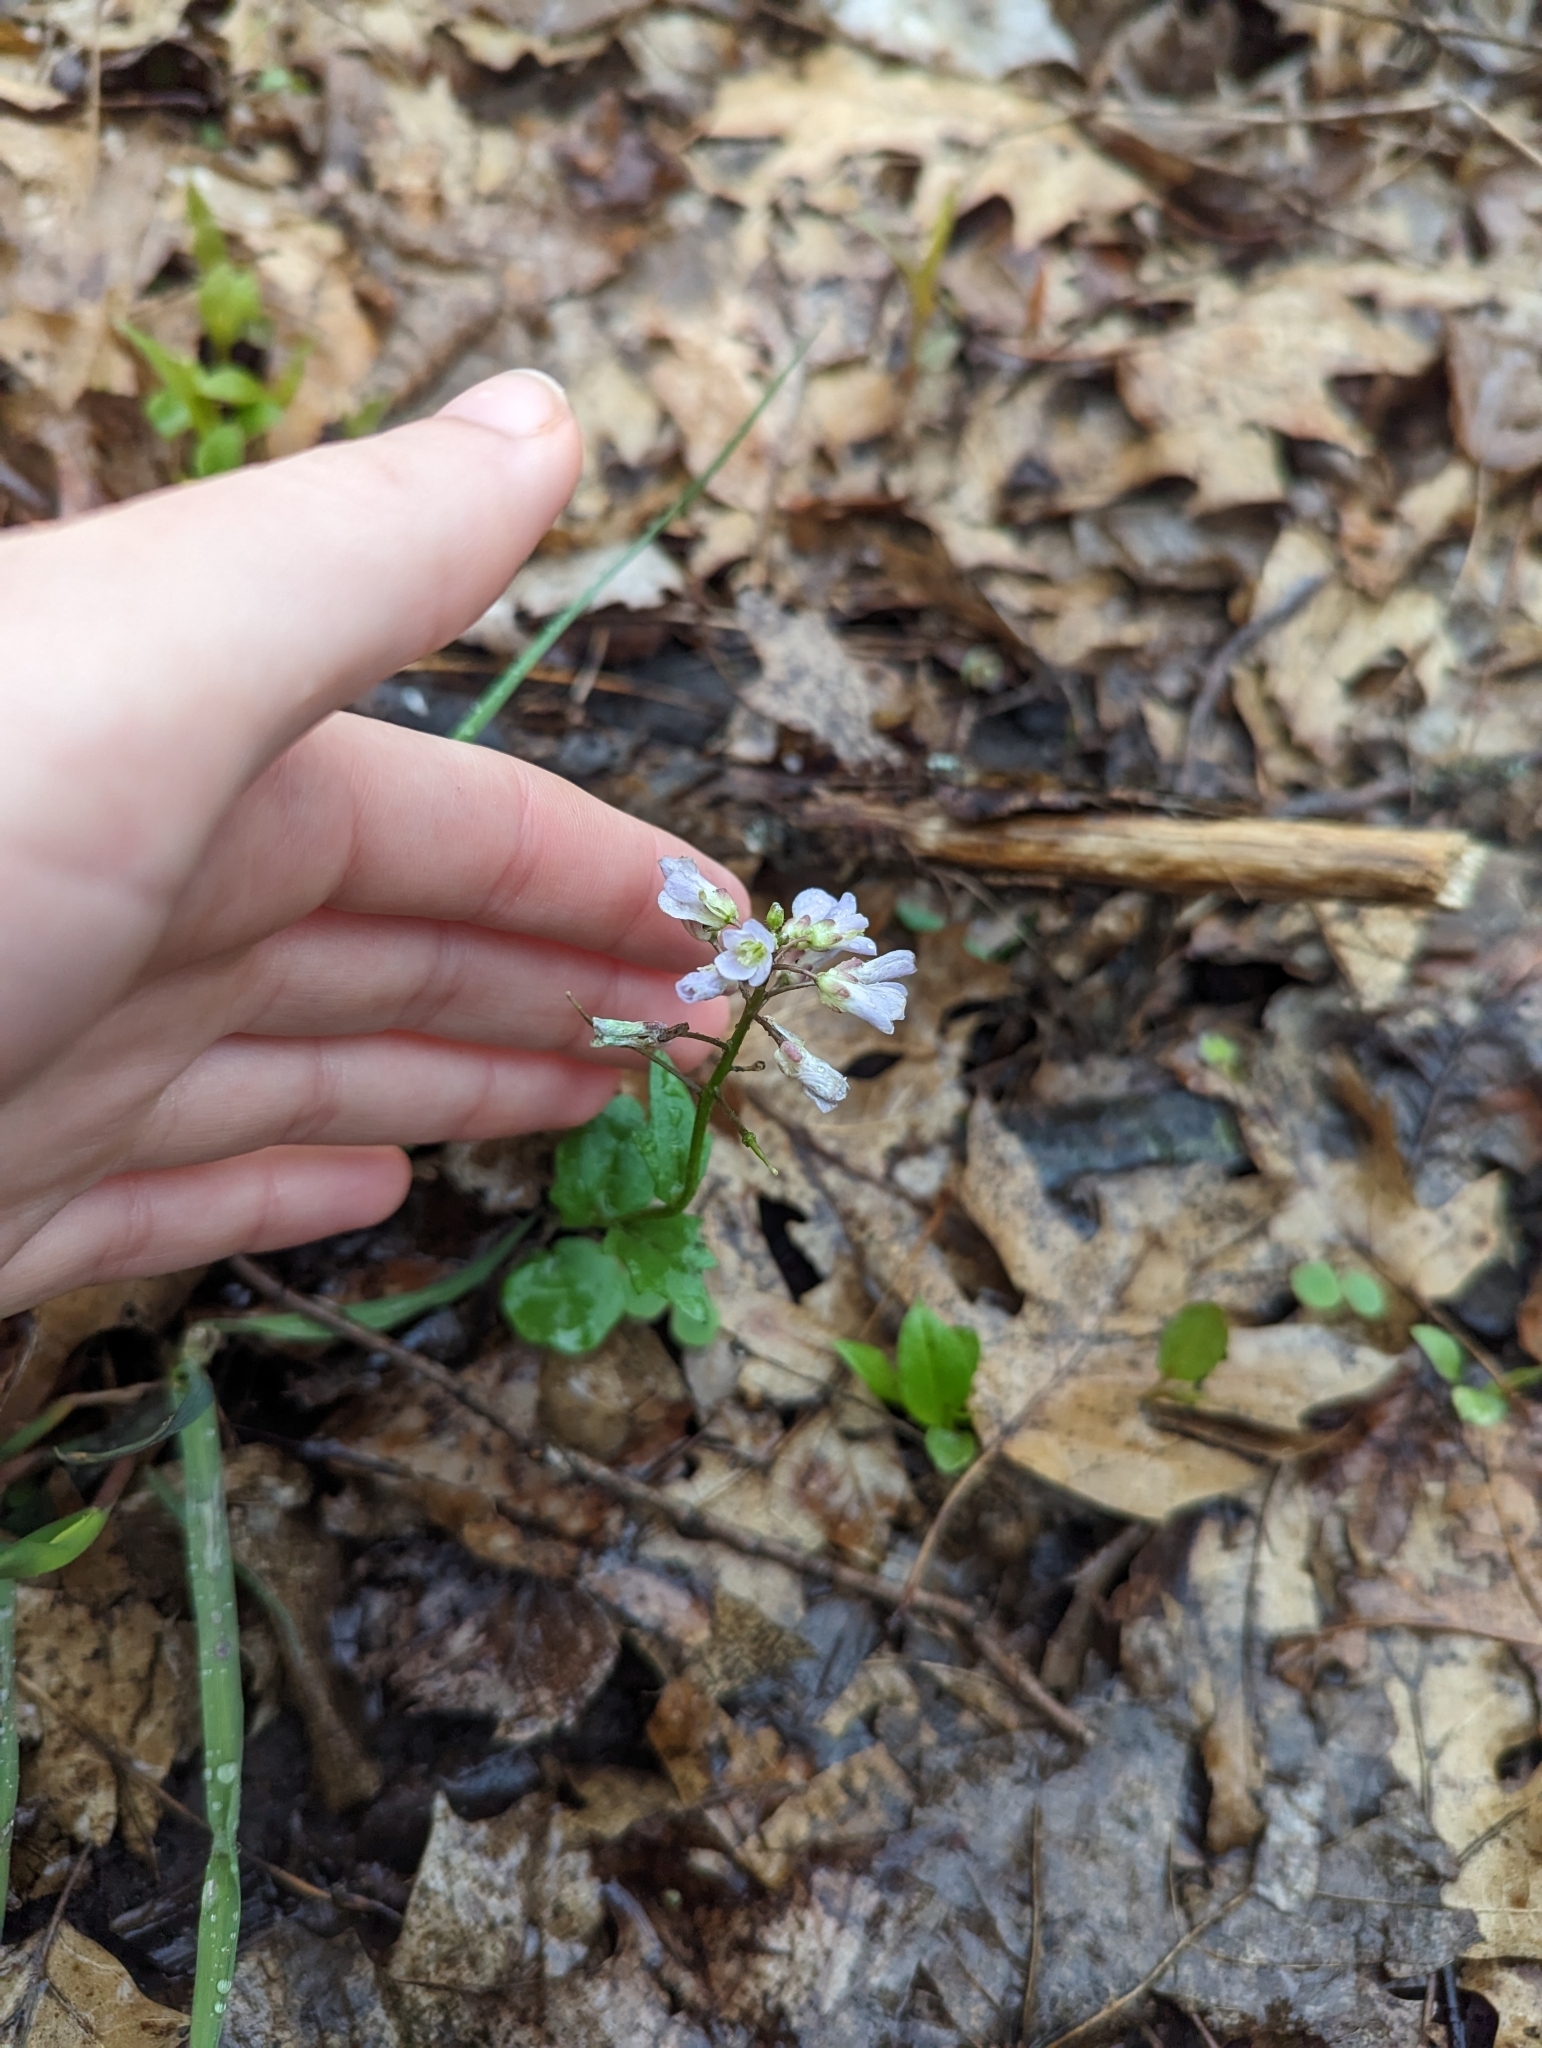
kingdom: Plantae
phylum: Tracheophyta
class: Magnoliopsida
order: Brassicales
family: Brassicaceae
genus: Cardamine
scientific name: Cardamine douglassii
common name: Purple cress
